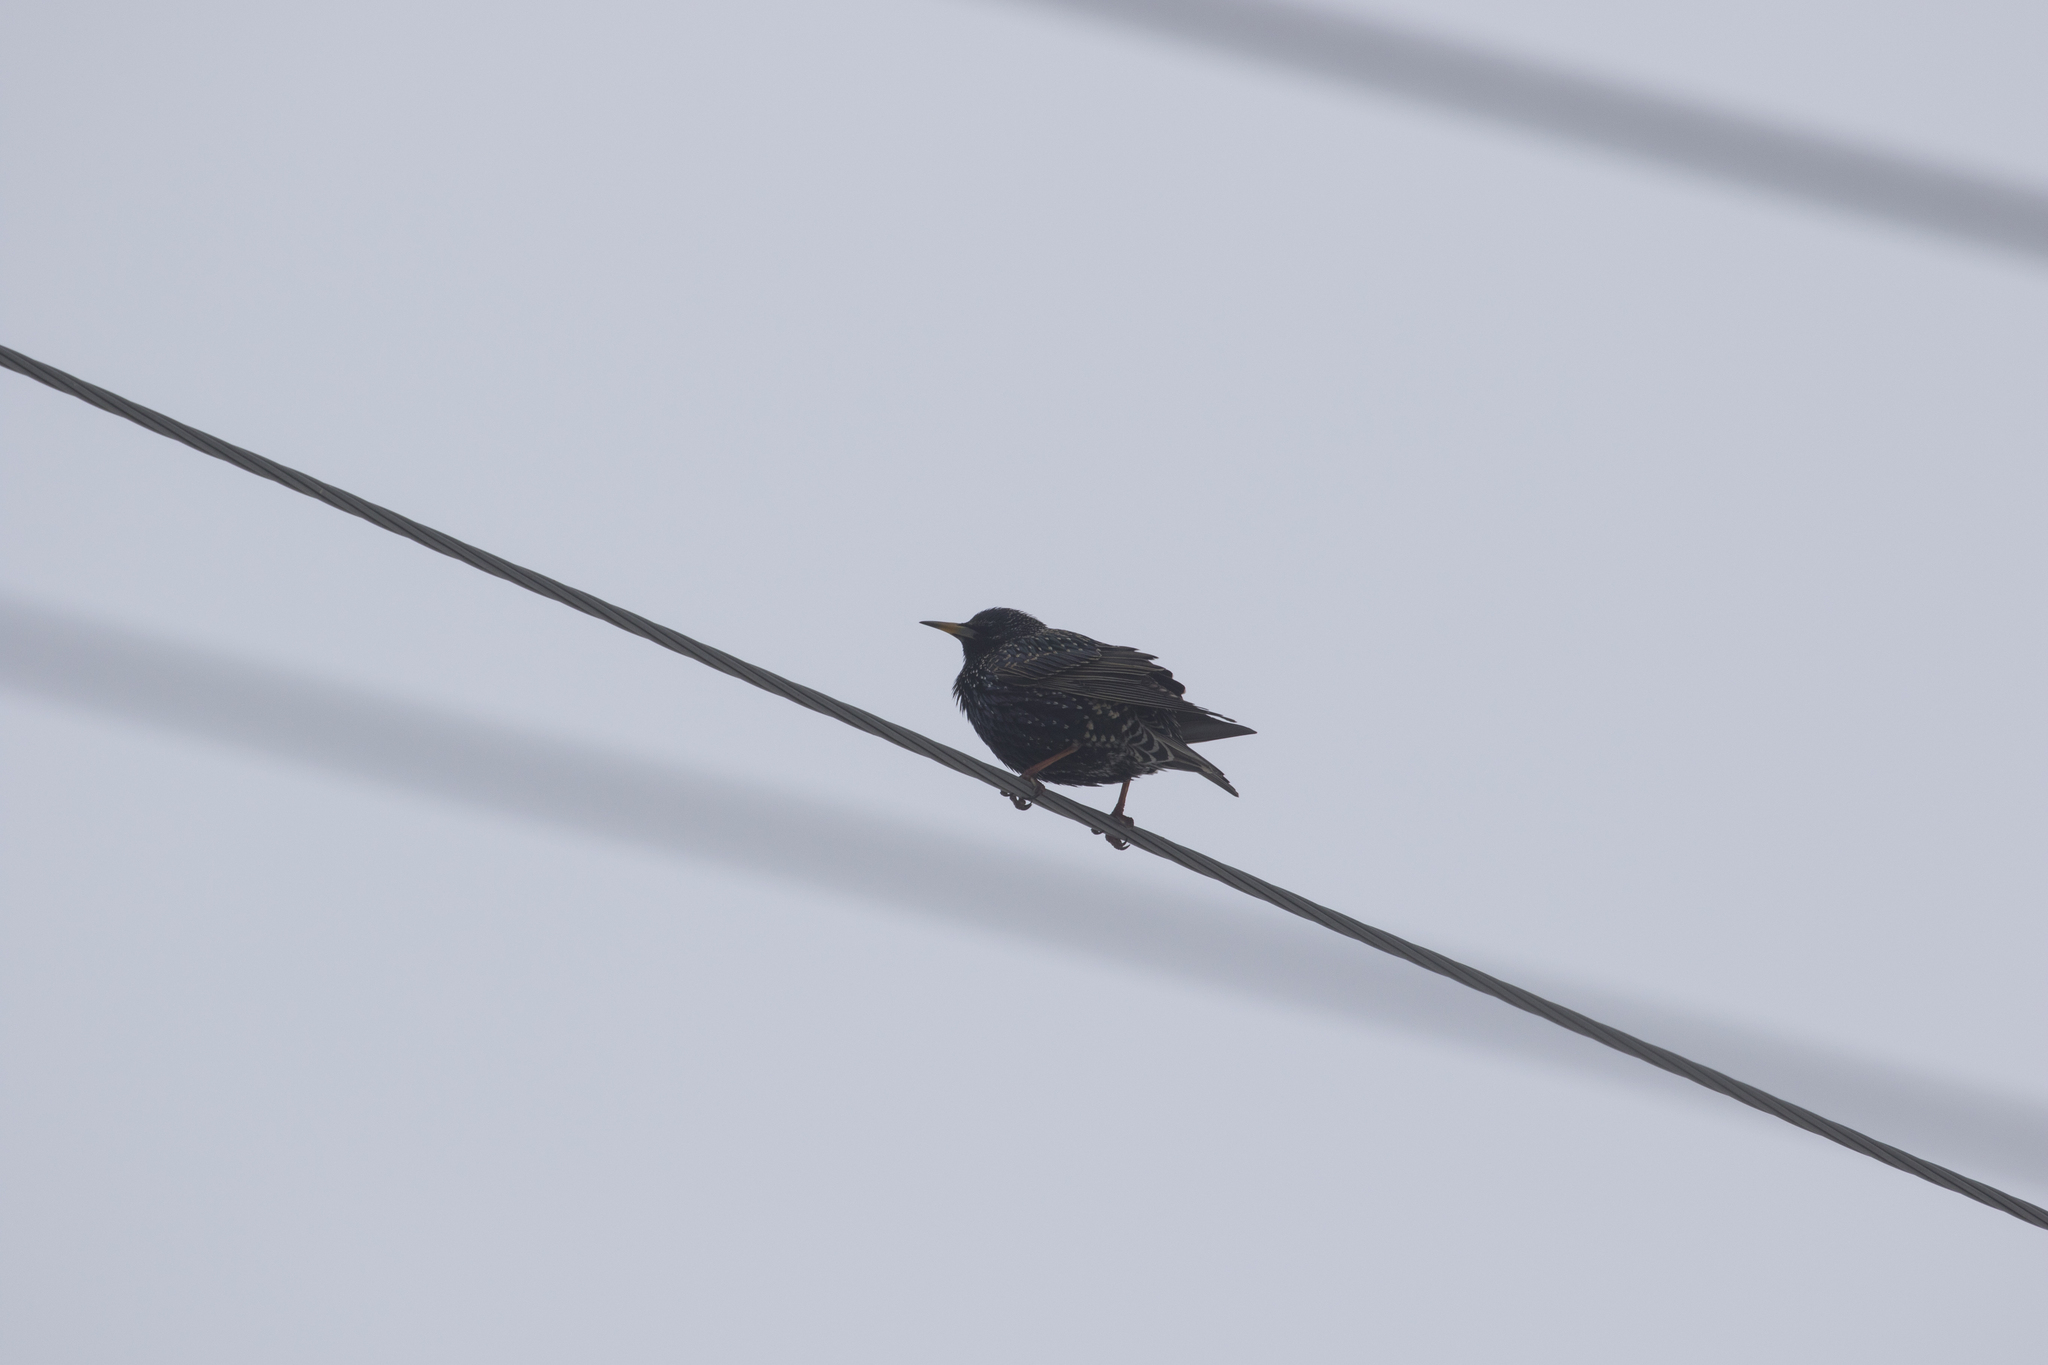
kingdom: Animalia
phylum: Chordata
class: Aves
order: Passeriformes
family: Sturnidae
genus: Sturnus
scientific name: Sturnus vulgaris
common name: Common starling
